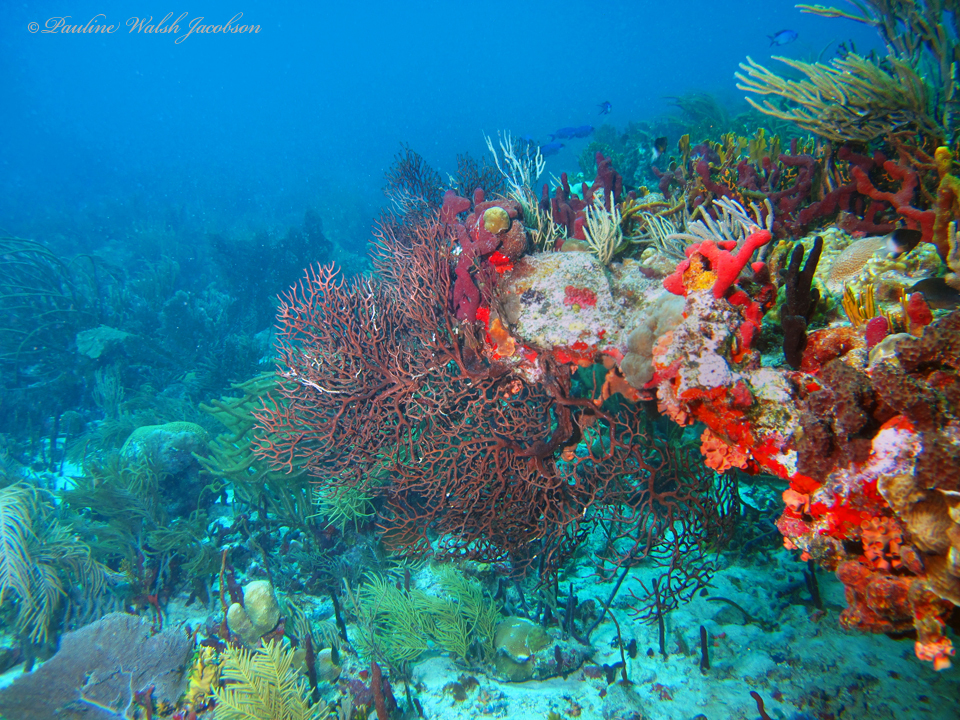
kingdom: Animalia
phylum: Cnidaria
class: Anthozoa
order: Malacalcyonacea
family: Melithaeidae
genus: Iciligorgia
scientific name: Iciligorgia schrammi
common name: Black sea fan
